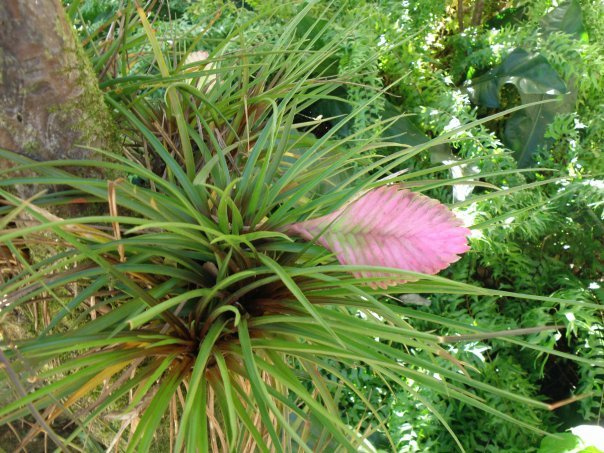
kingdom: Plantae
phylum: Tracheophyta
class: Liliopsida
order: Poales
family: Bromeliaceae
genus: Wallisia
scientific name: Wallisia cyanea
